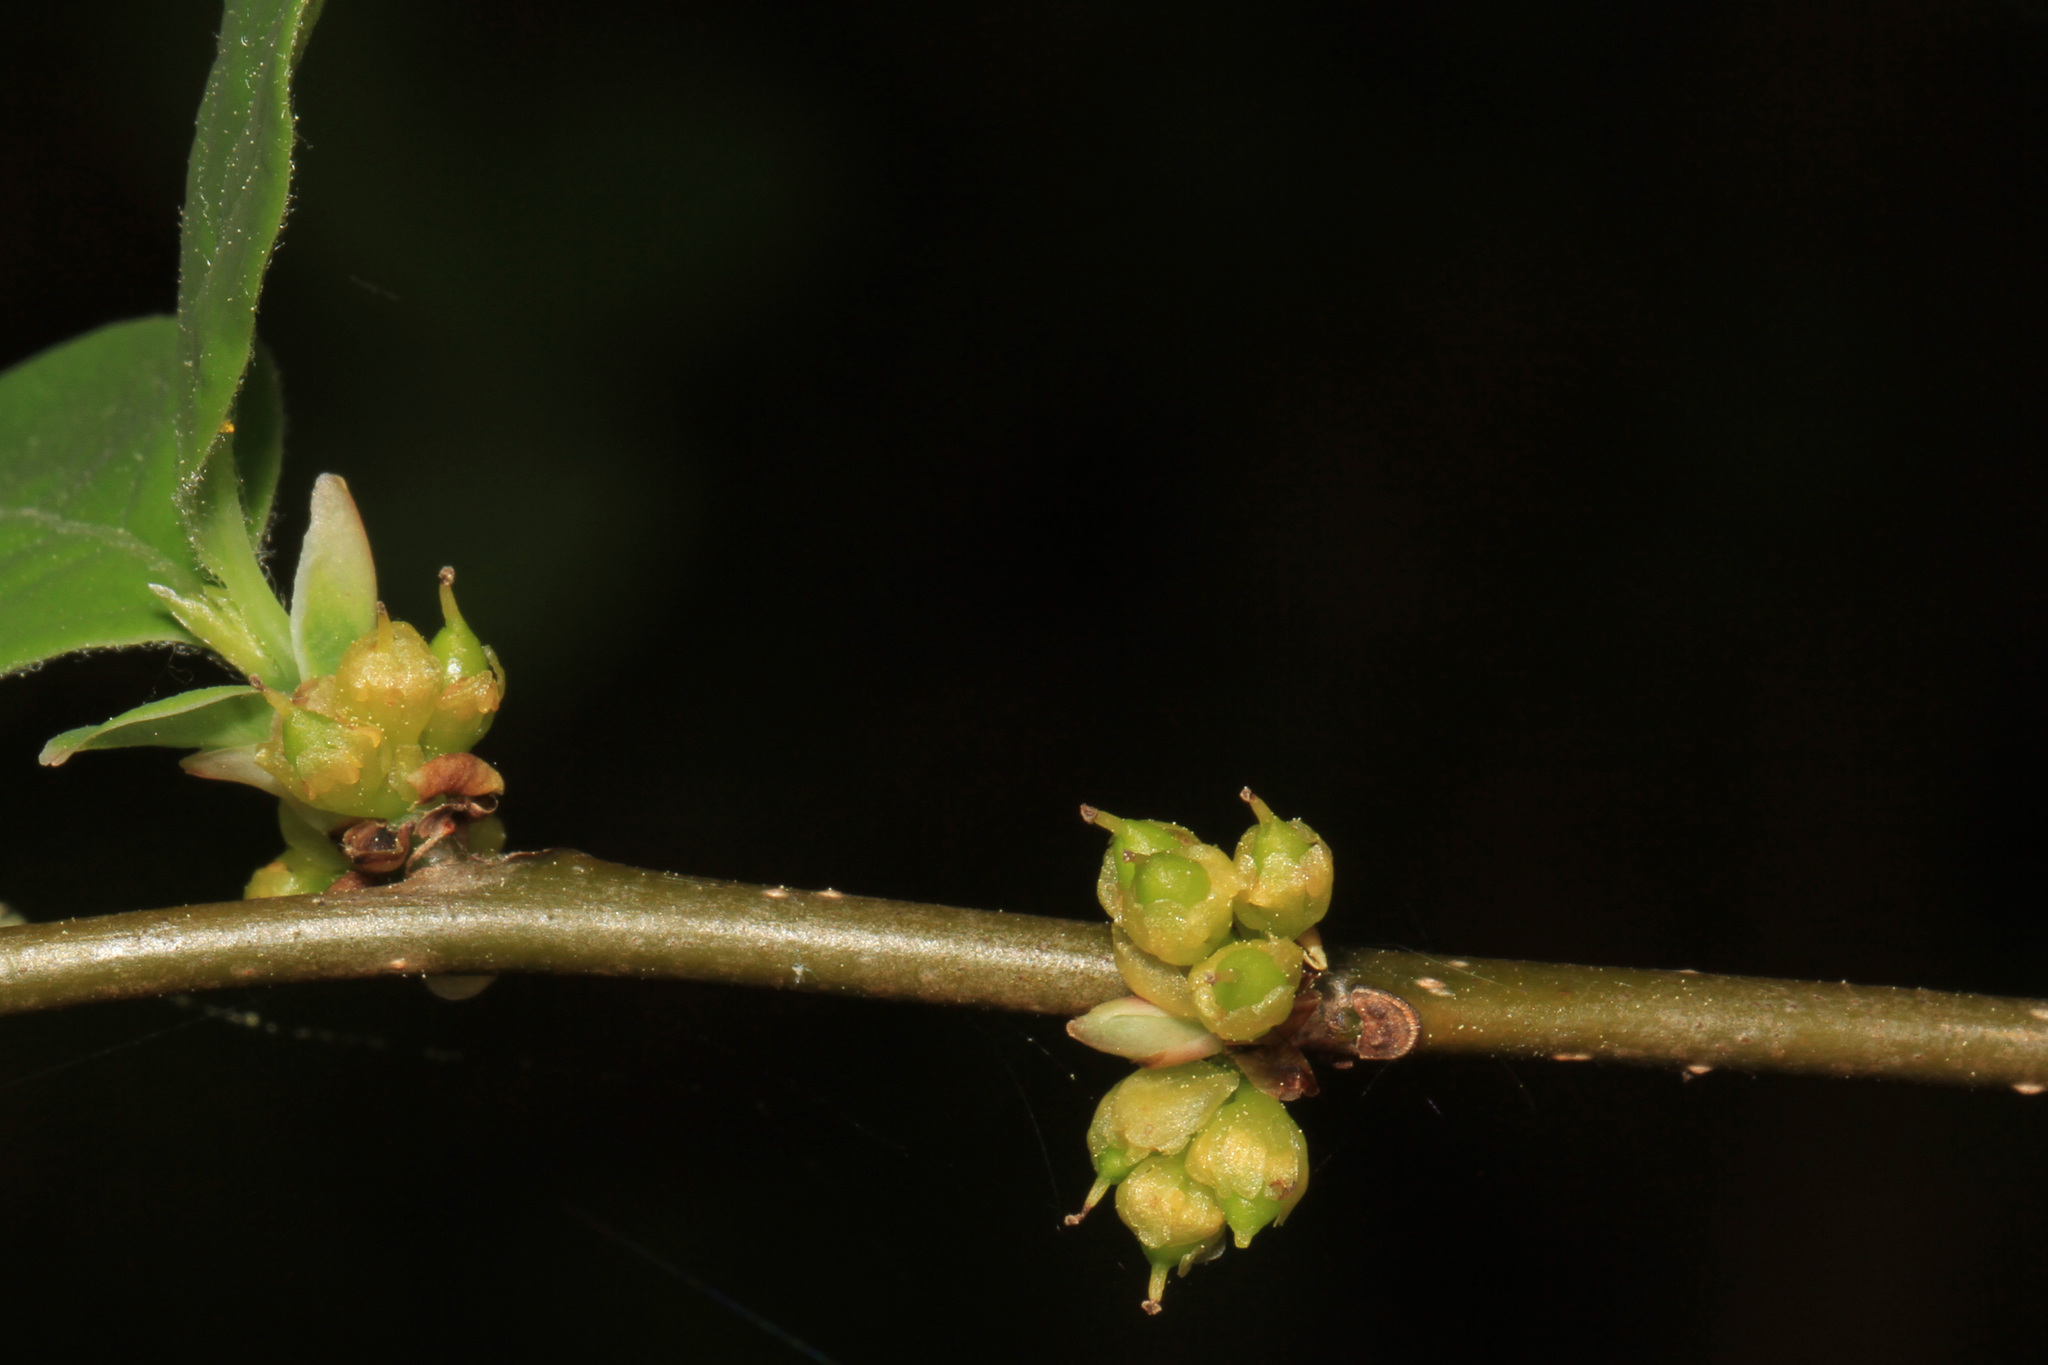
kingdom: Plantae
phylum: Tracheophyta
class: Magnoliopsida
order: Laurales
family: Lauraceae
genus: Lindera
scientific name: Lindera benzoin
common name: Spicebush
